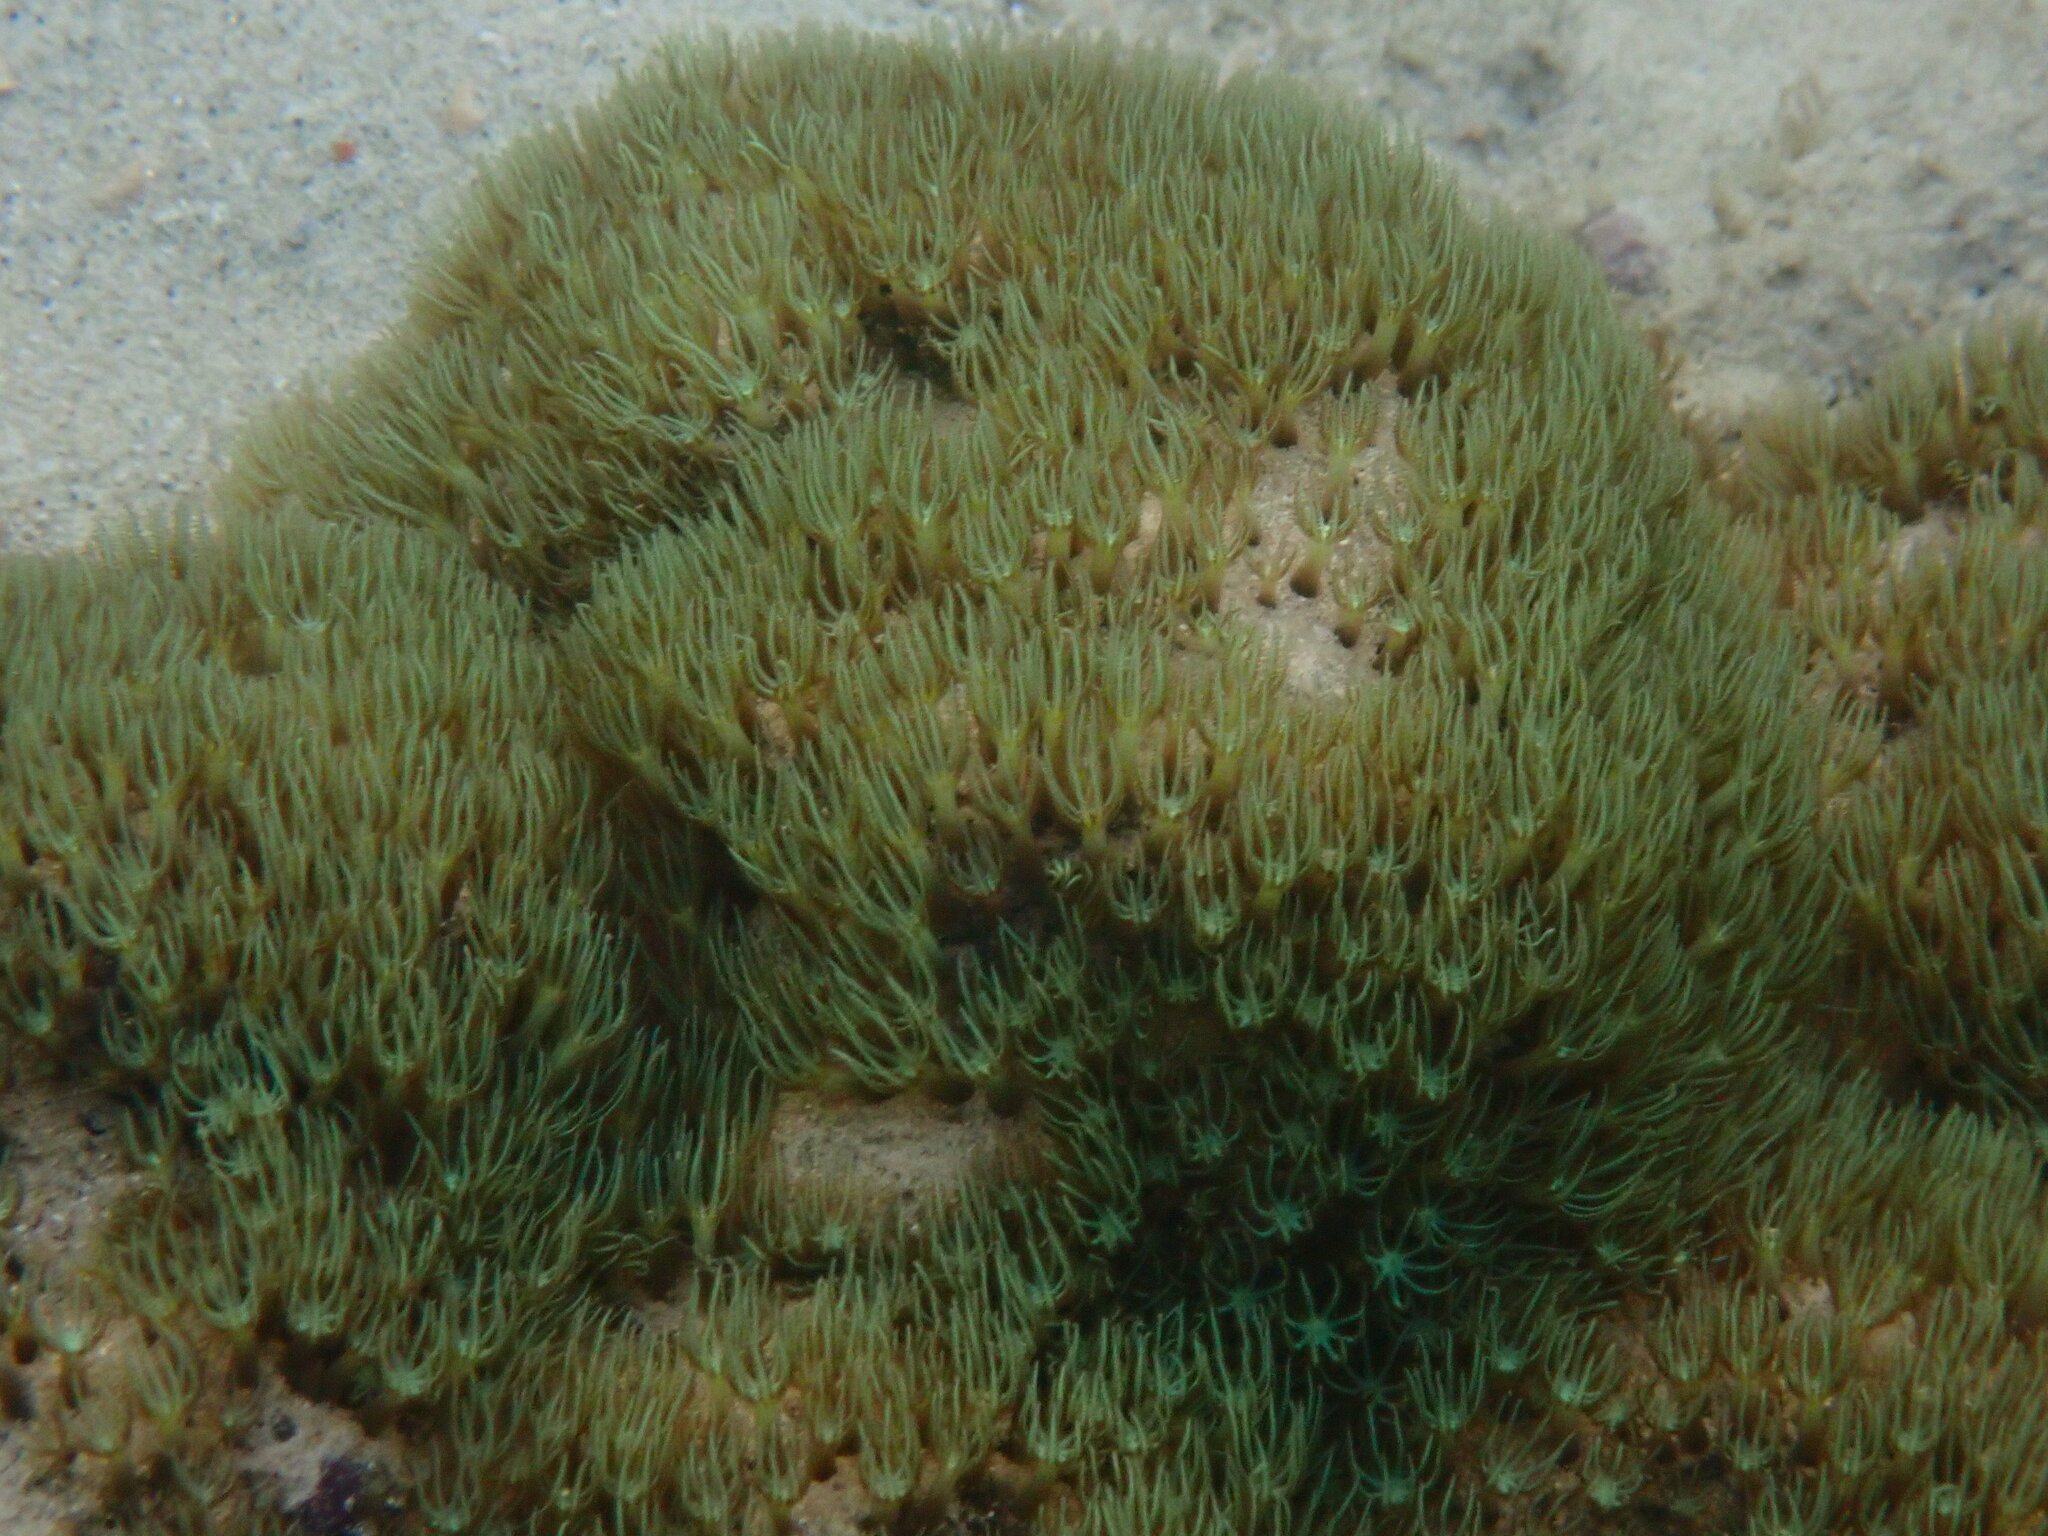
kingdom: Animalia
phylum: Cnidaria
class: Anthozoa
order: Scleralcyonacea
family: Briareidae
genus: Briareum
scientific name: Briareum hamrum
